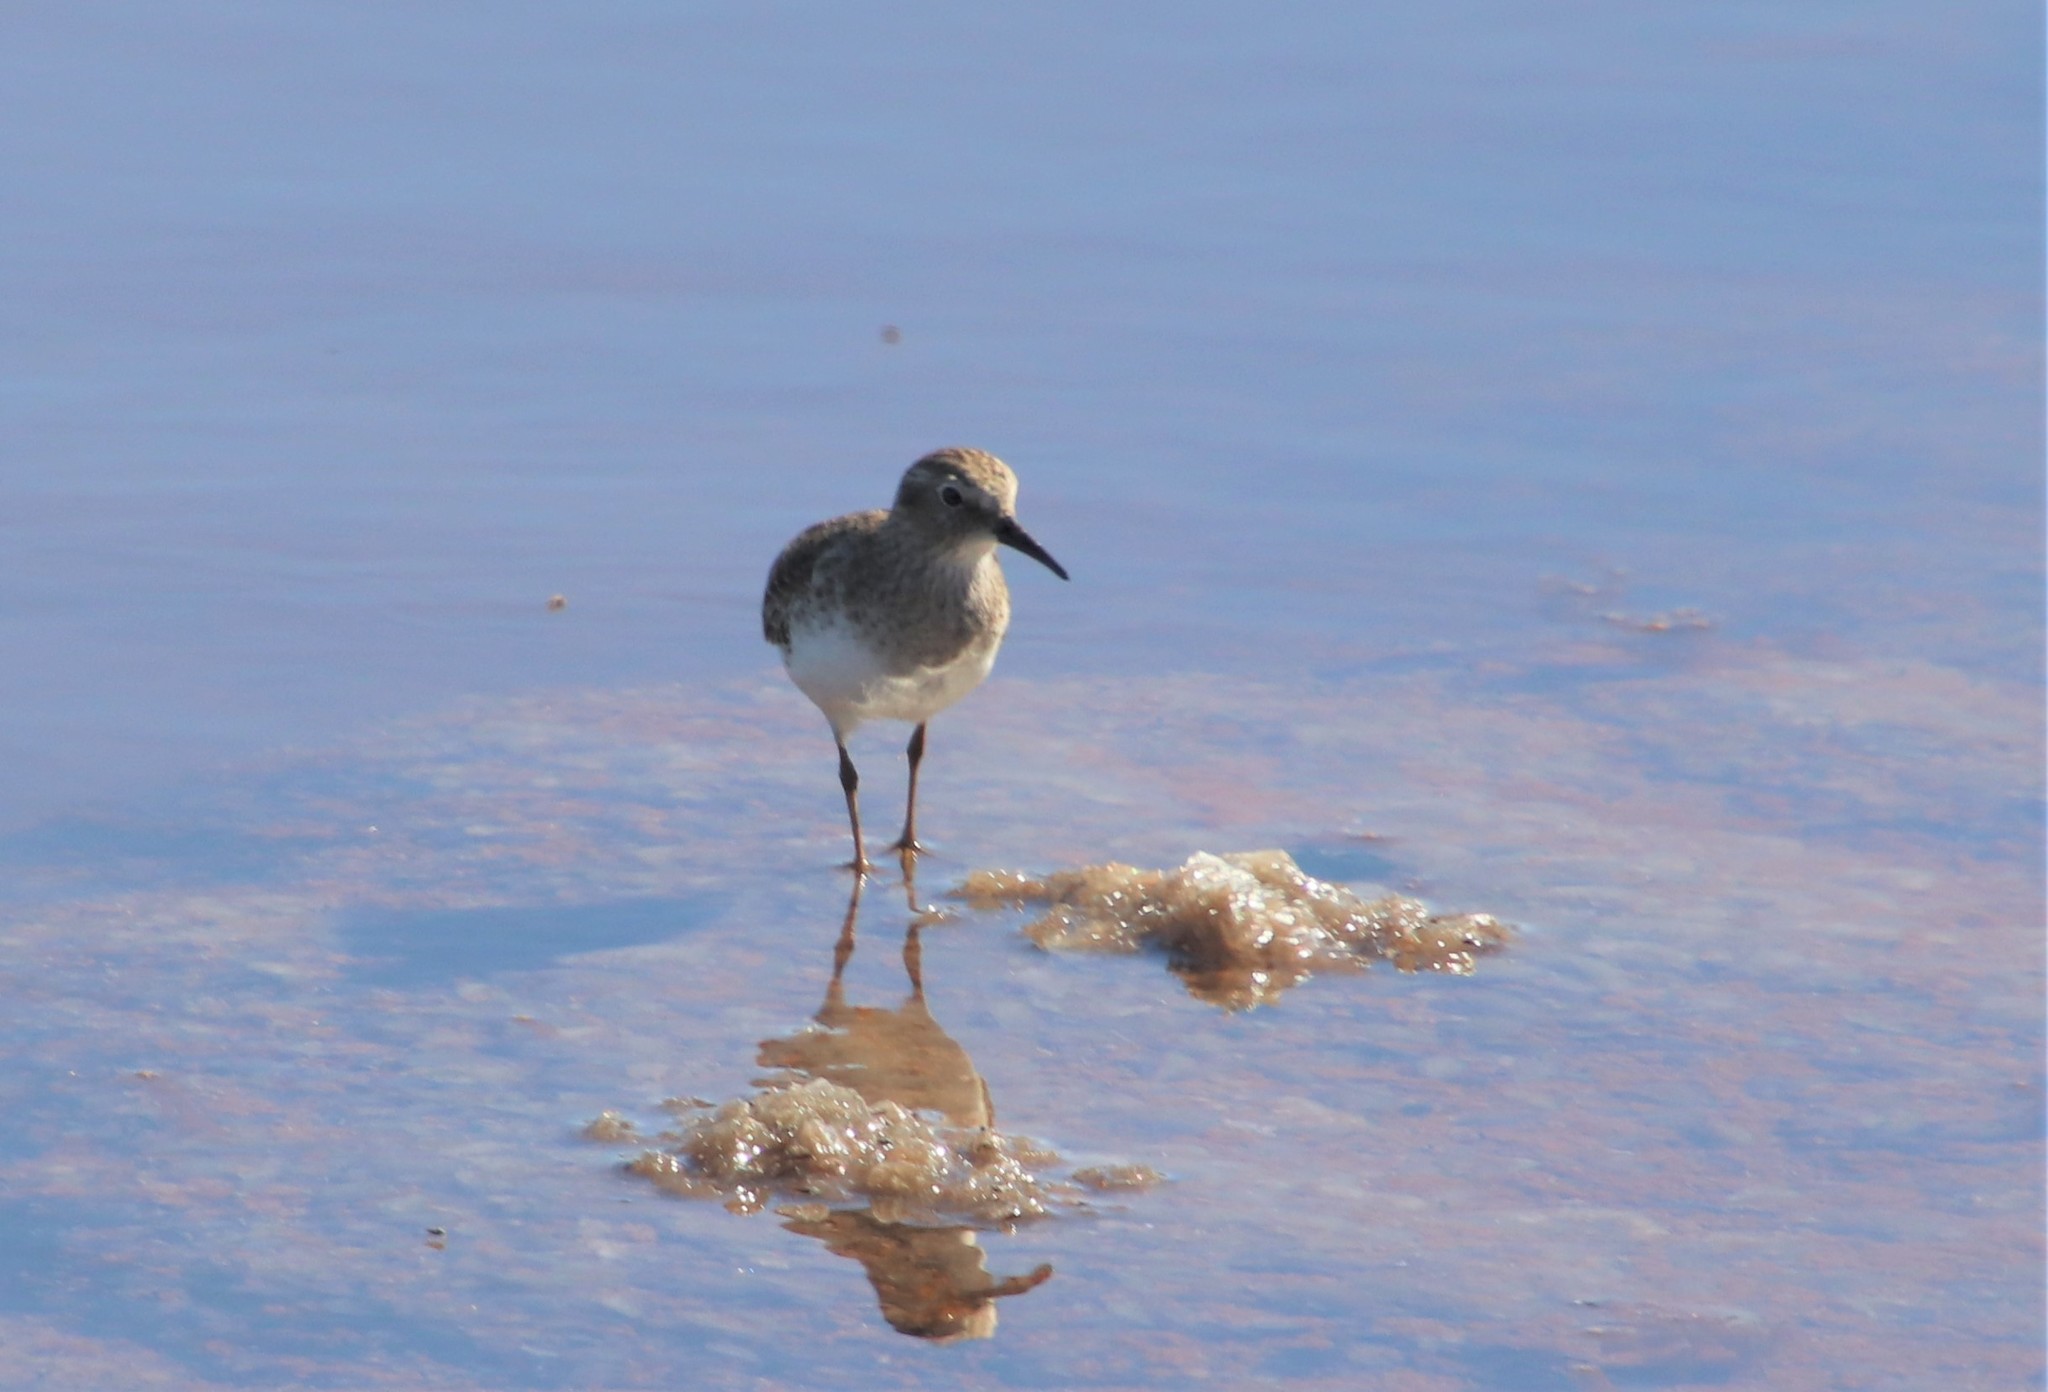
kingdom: Animalia
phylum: Chordata
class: Aves
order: Charadriiformes
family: Scolopacidae
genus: Calidris
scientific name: Calidris minutilla
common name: Least sandpiper
